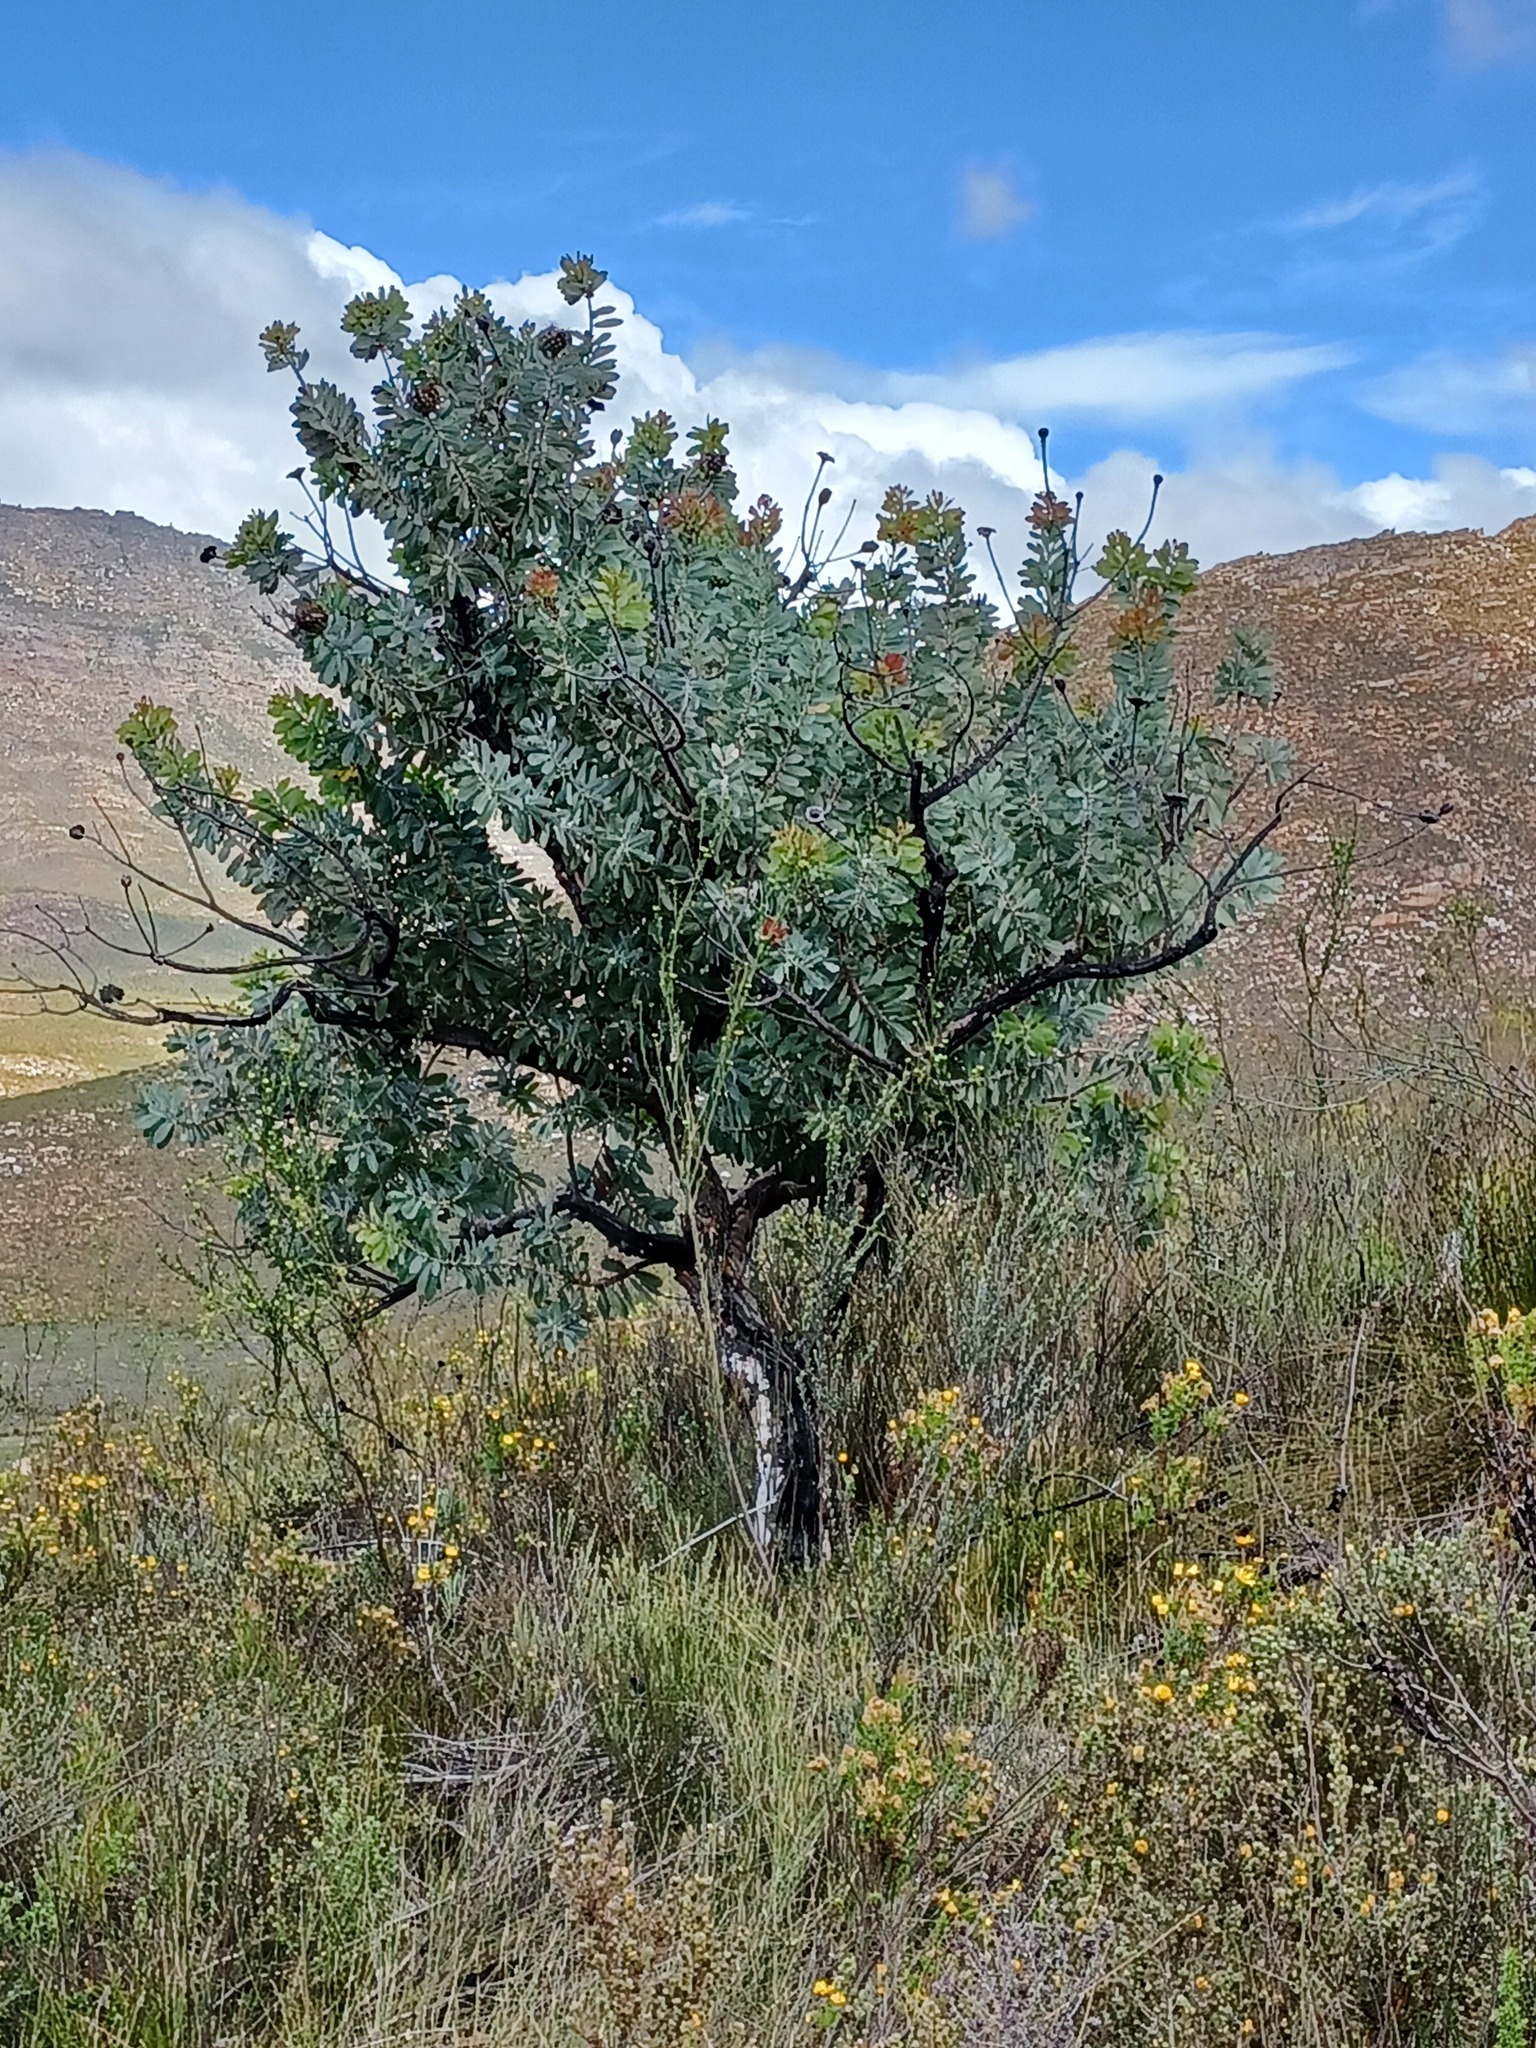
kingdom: Plantae
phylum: Tracheophyta
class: Magnoliopsida
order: Proteales
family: Proteaceae
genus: Protea
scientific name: Protea nitida
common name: Tree protea
